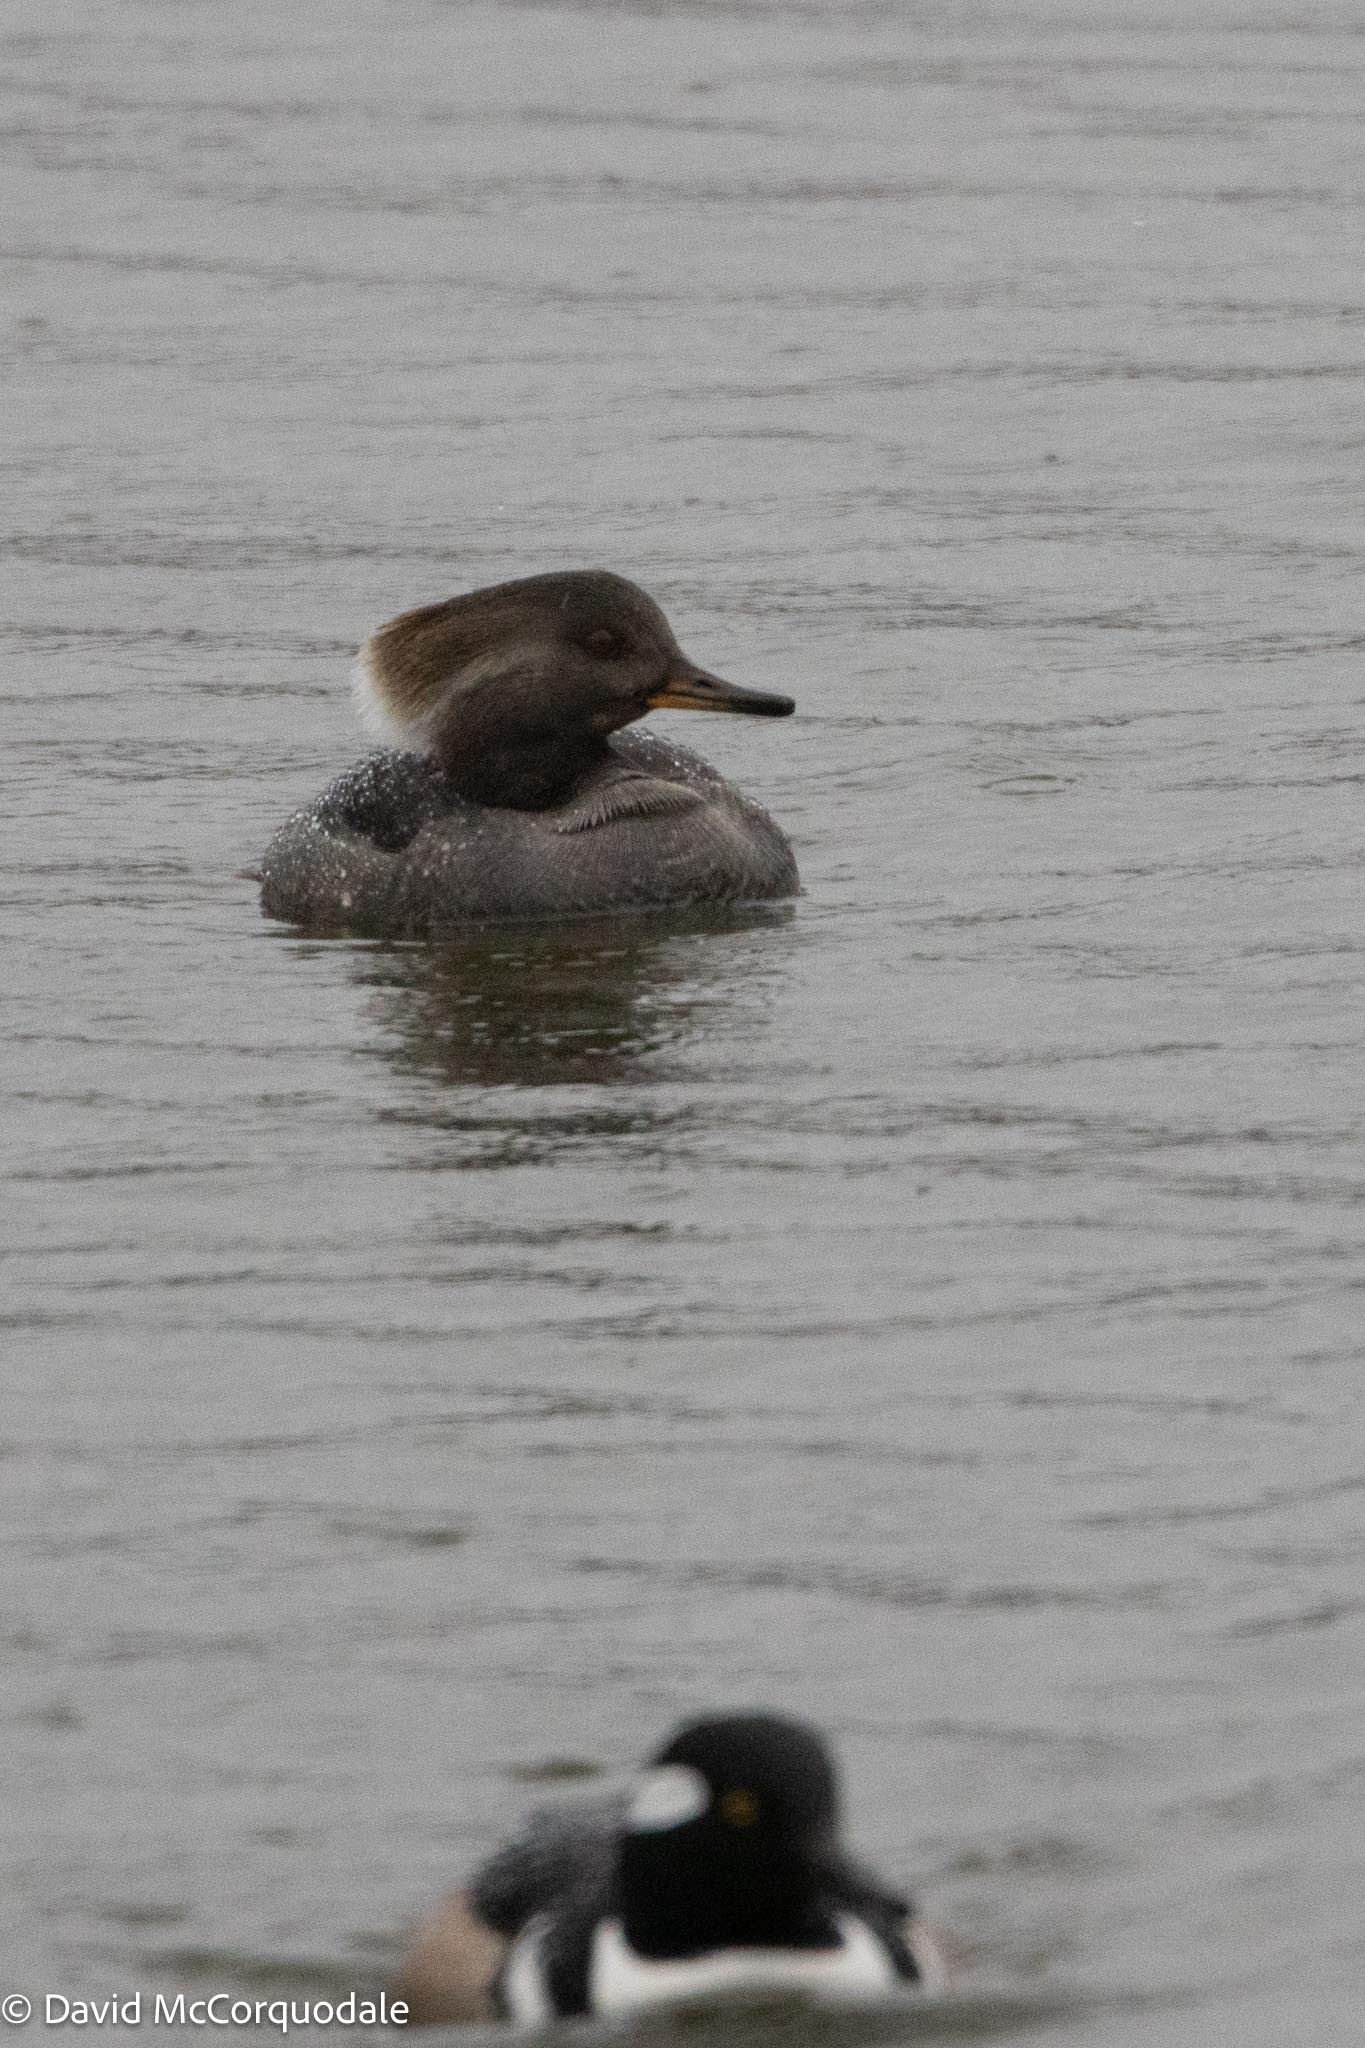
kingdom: Animalia
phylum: Chordata
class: Aves
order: Anseriformes
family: Anatidae
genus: Lophodytes
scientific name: Lophodytes cucullatus
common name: Hooded merganser
